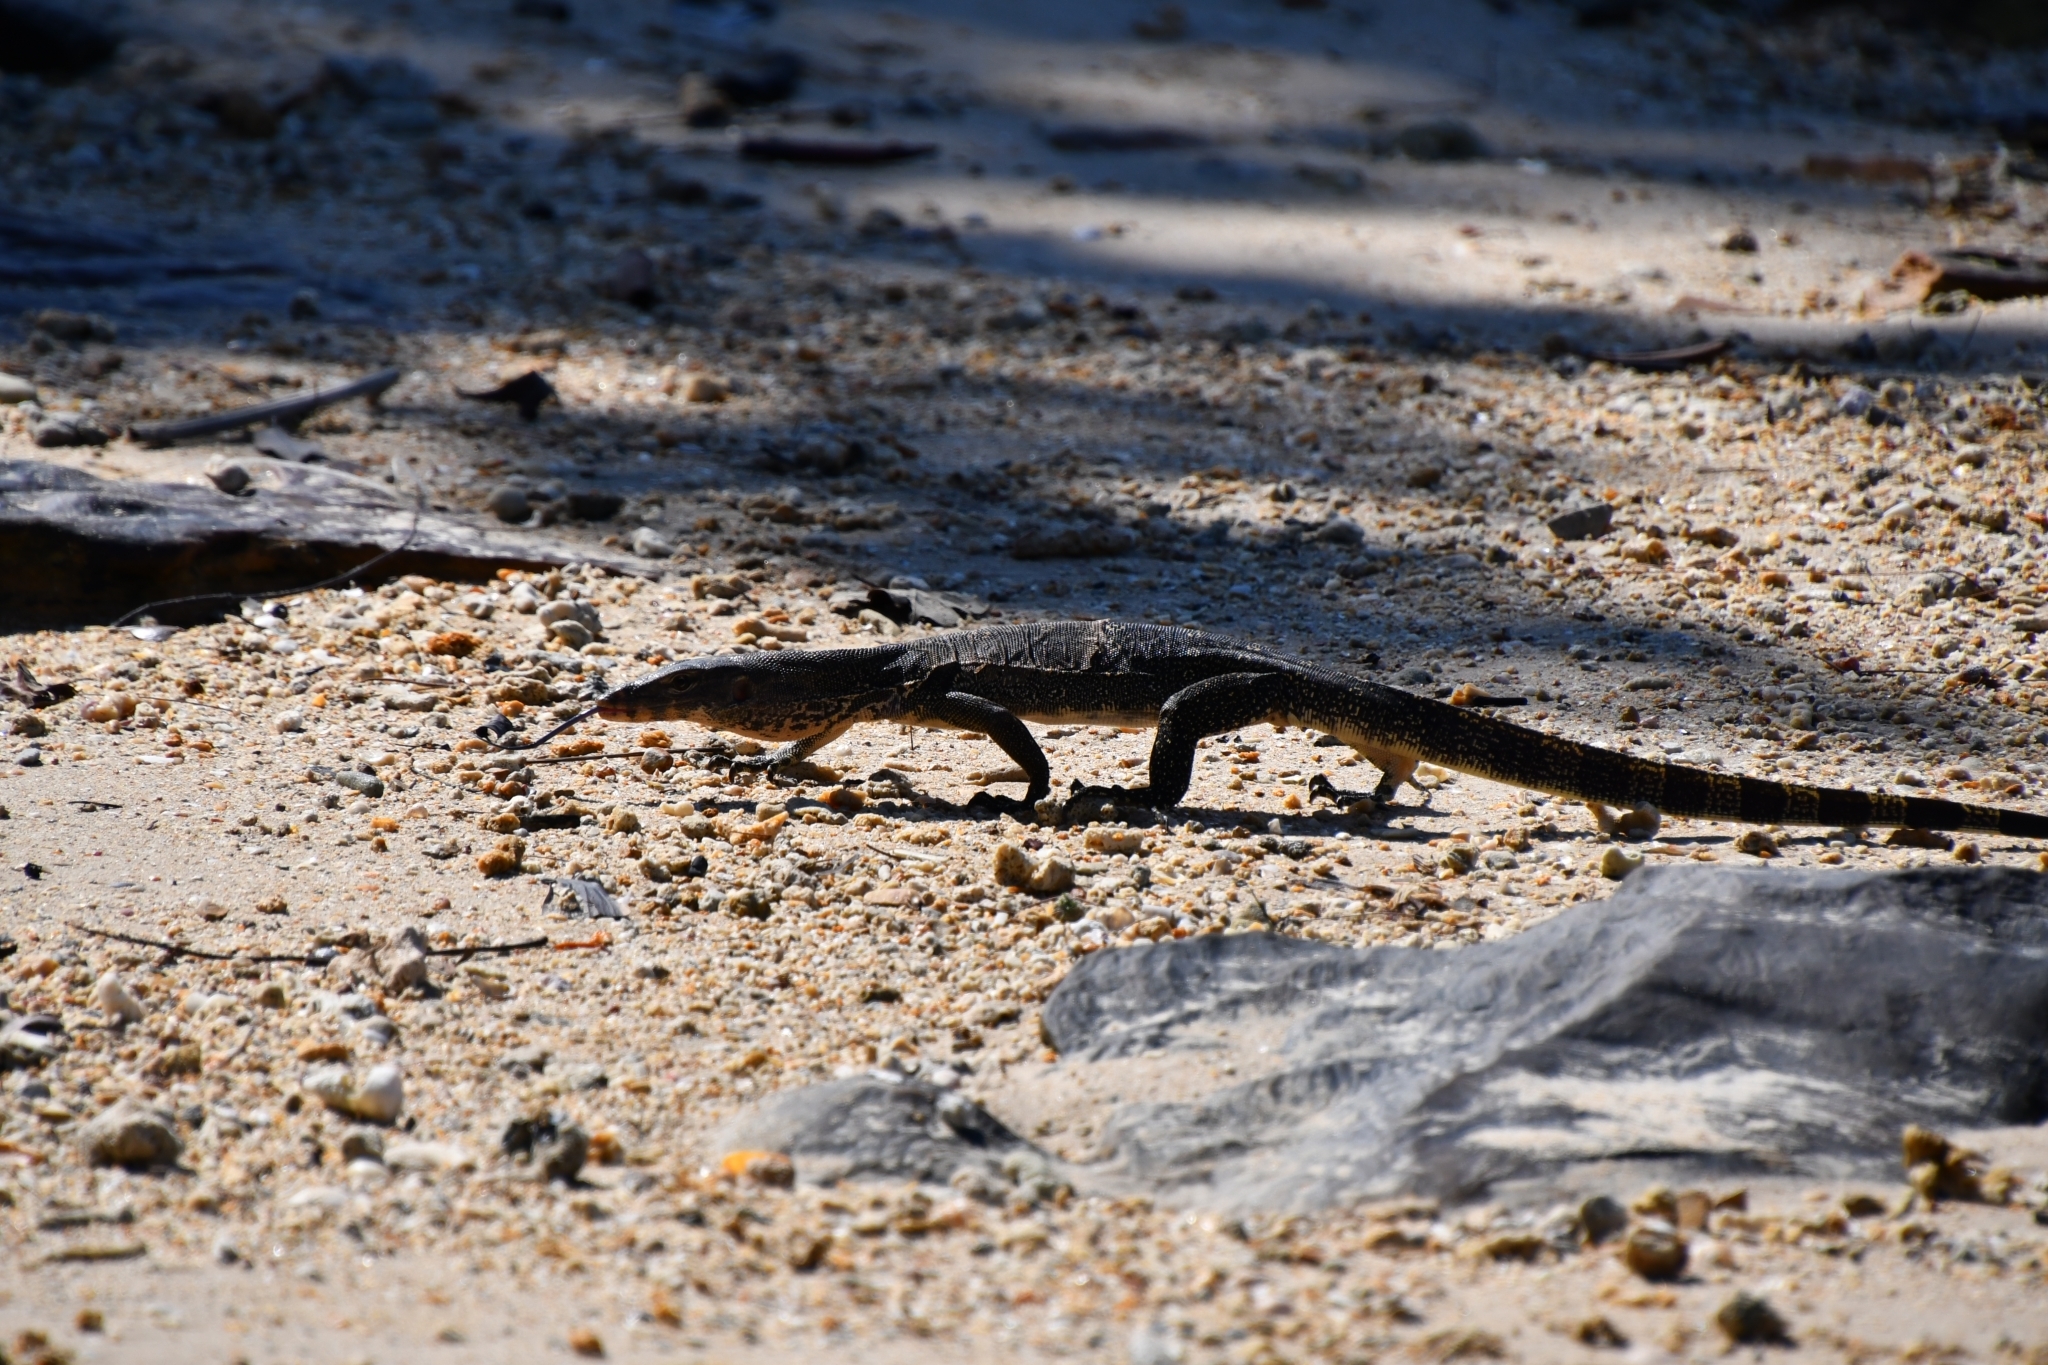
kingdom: Animalia
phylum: Chordata
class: Squamata
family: Varanidae
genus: Varanus
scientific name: Varanus salvator
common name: Common water monitor
